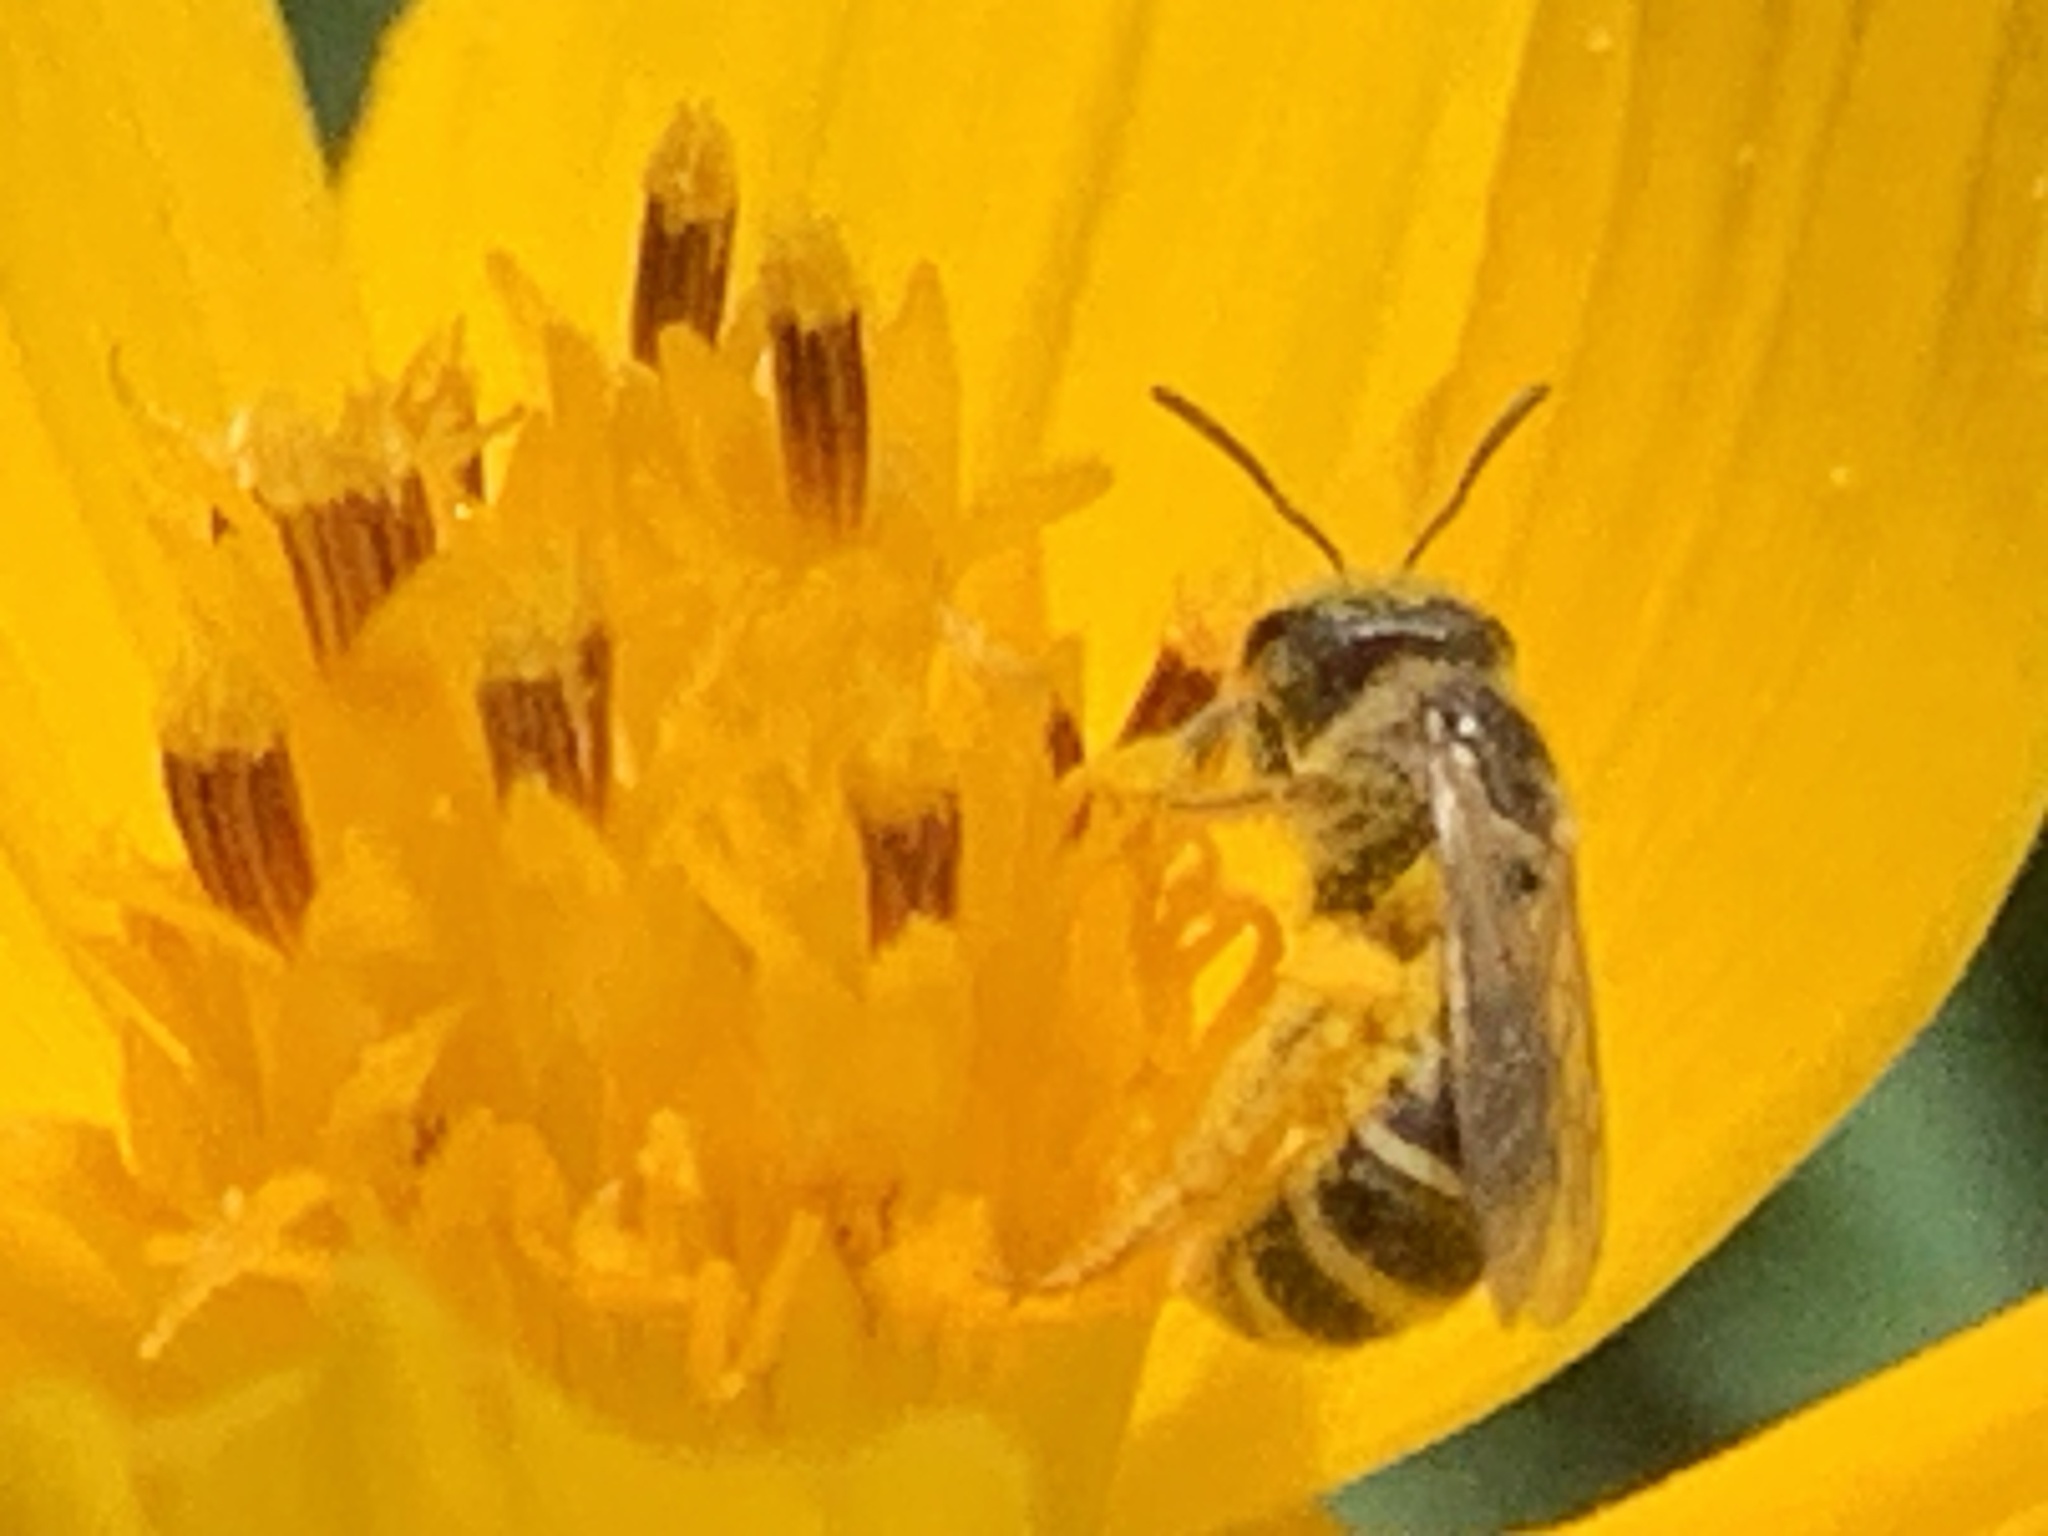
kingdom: Animalia
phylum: Arthropoda
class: Insecta
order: Hymenoptera
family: Halictidae
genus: Halictus
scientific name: Halictus ligatus
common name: Ligated furrow bee
